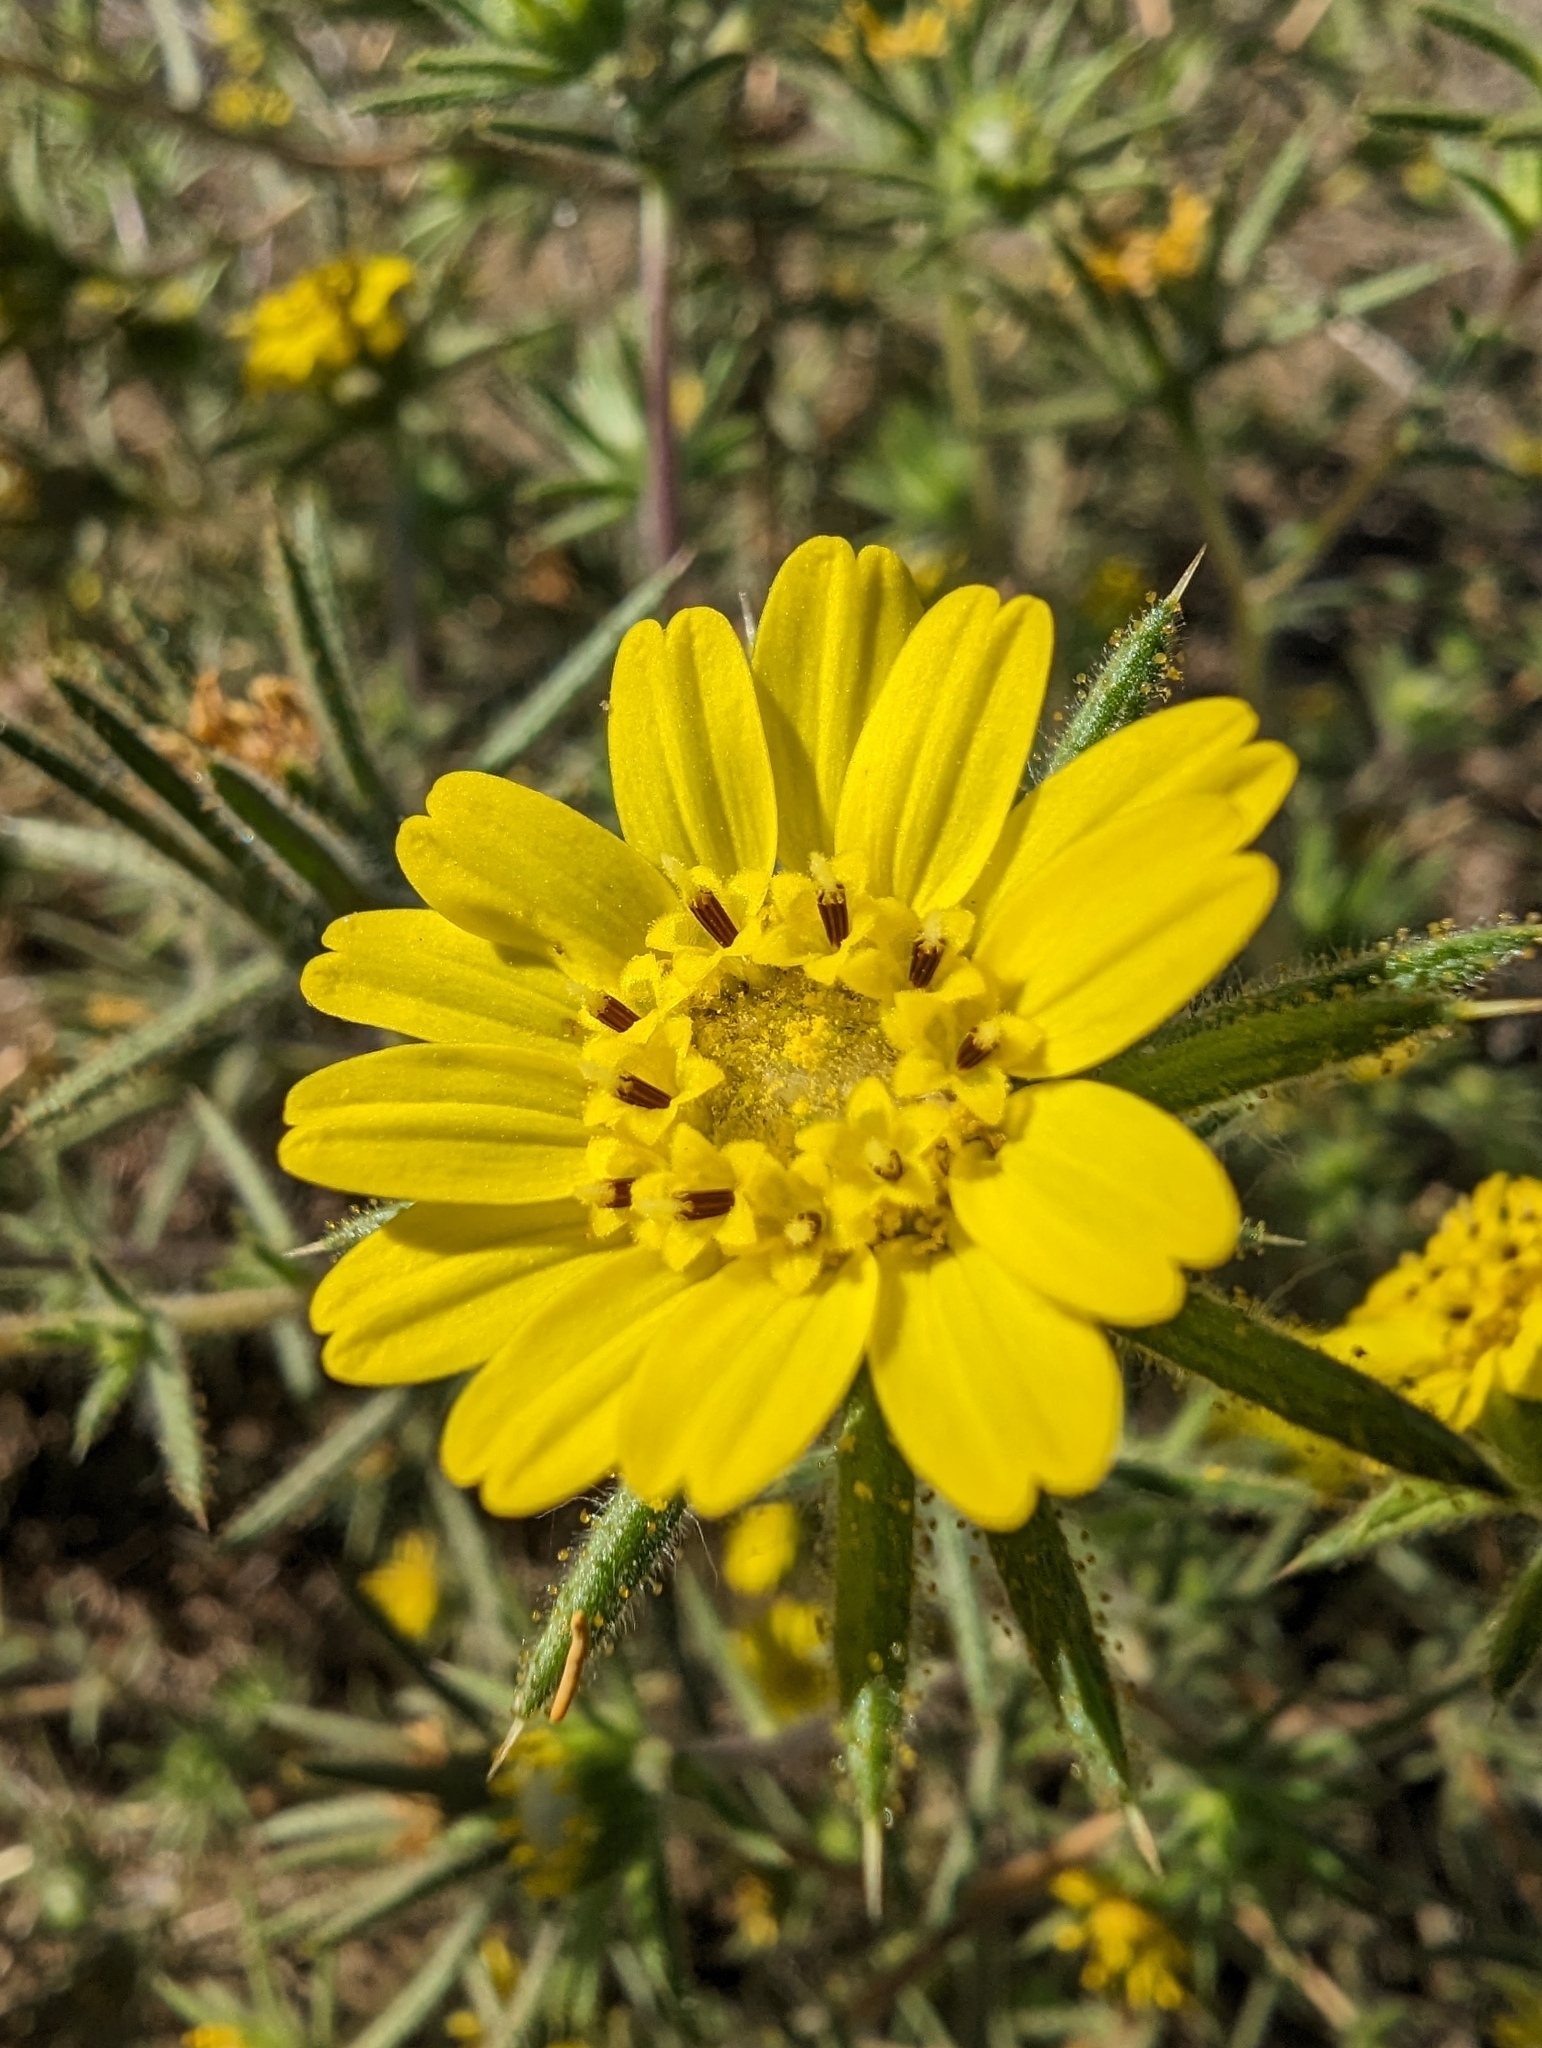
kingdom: Plantae
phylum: Tracheophyta
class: Magnoliopsida
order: Asterales
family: Asteraceae
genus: Centromadia
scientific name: Centromadia fitchii
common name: Fitch's spikeweed
